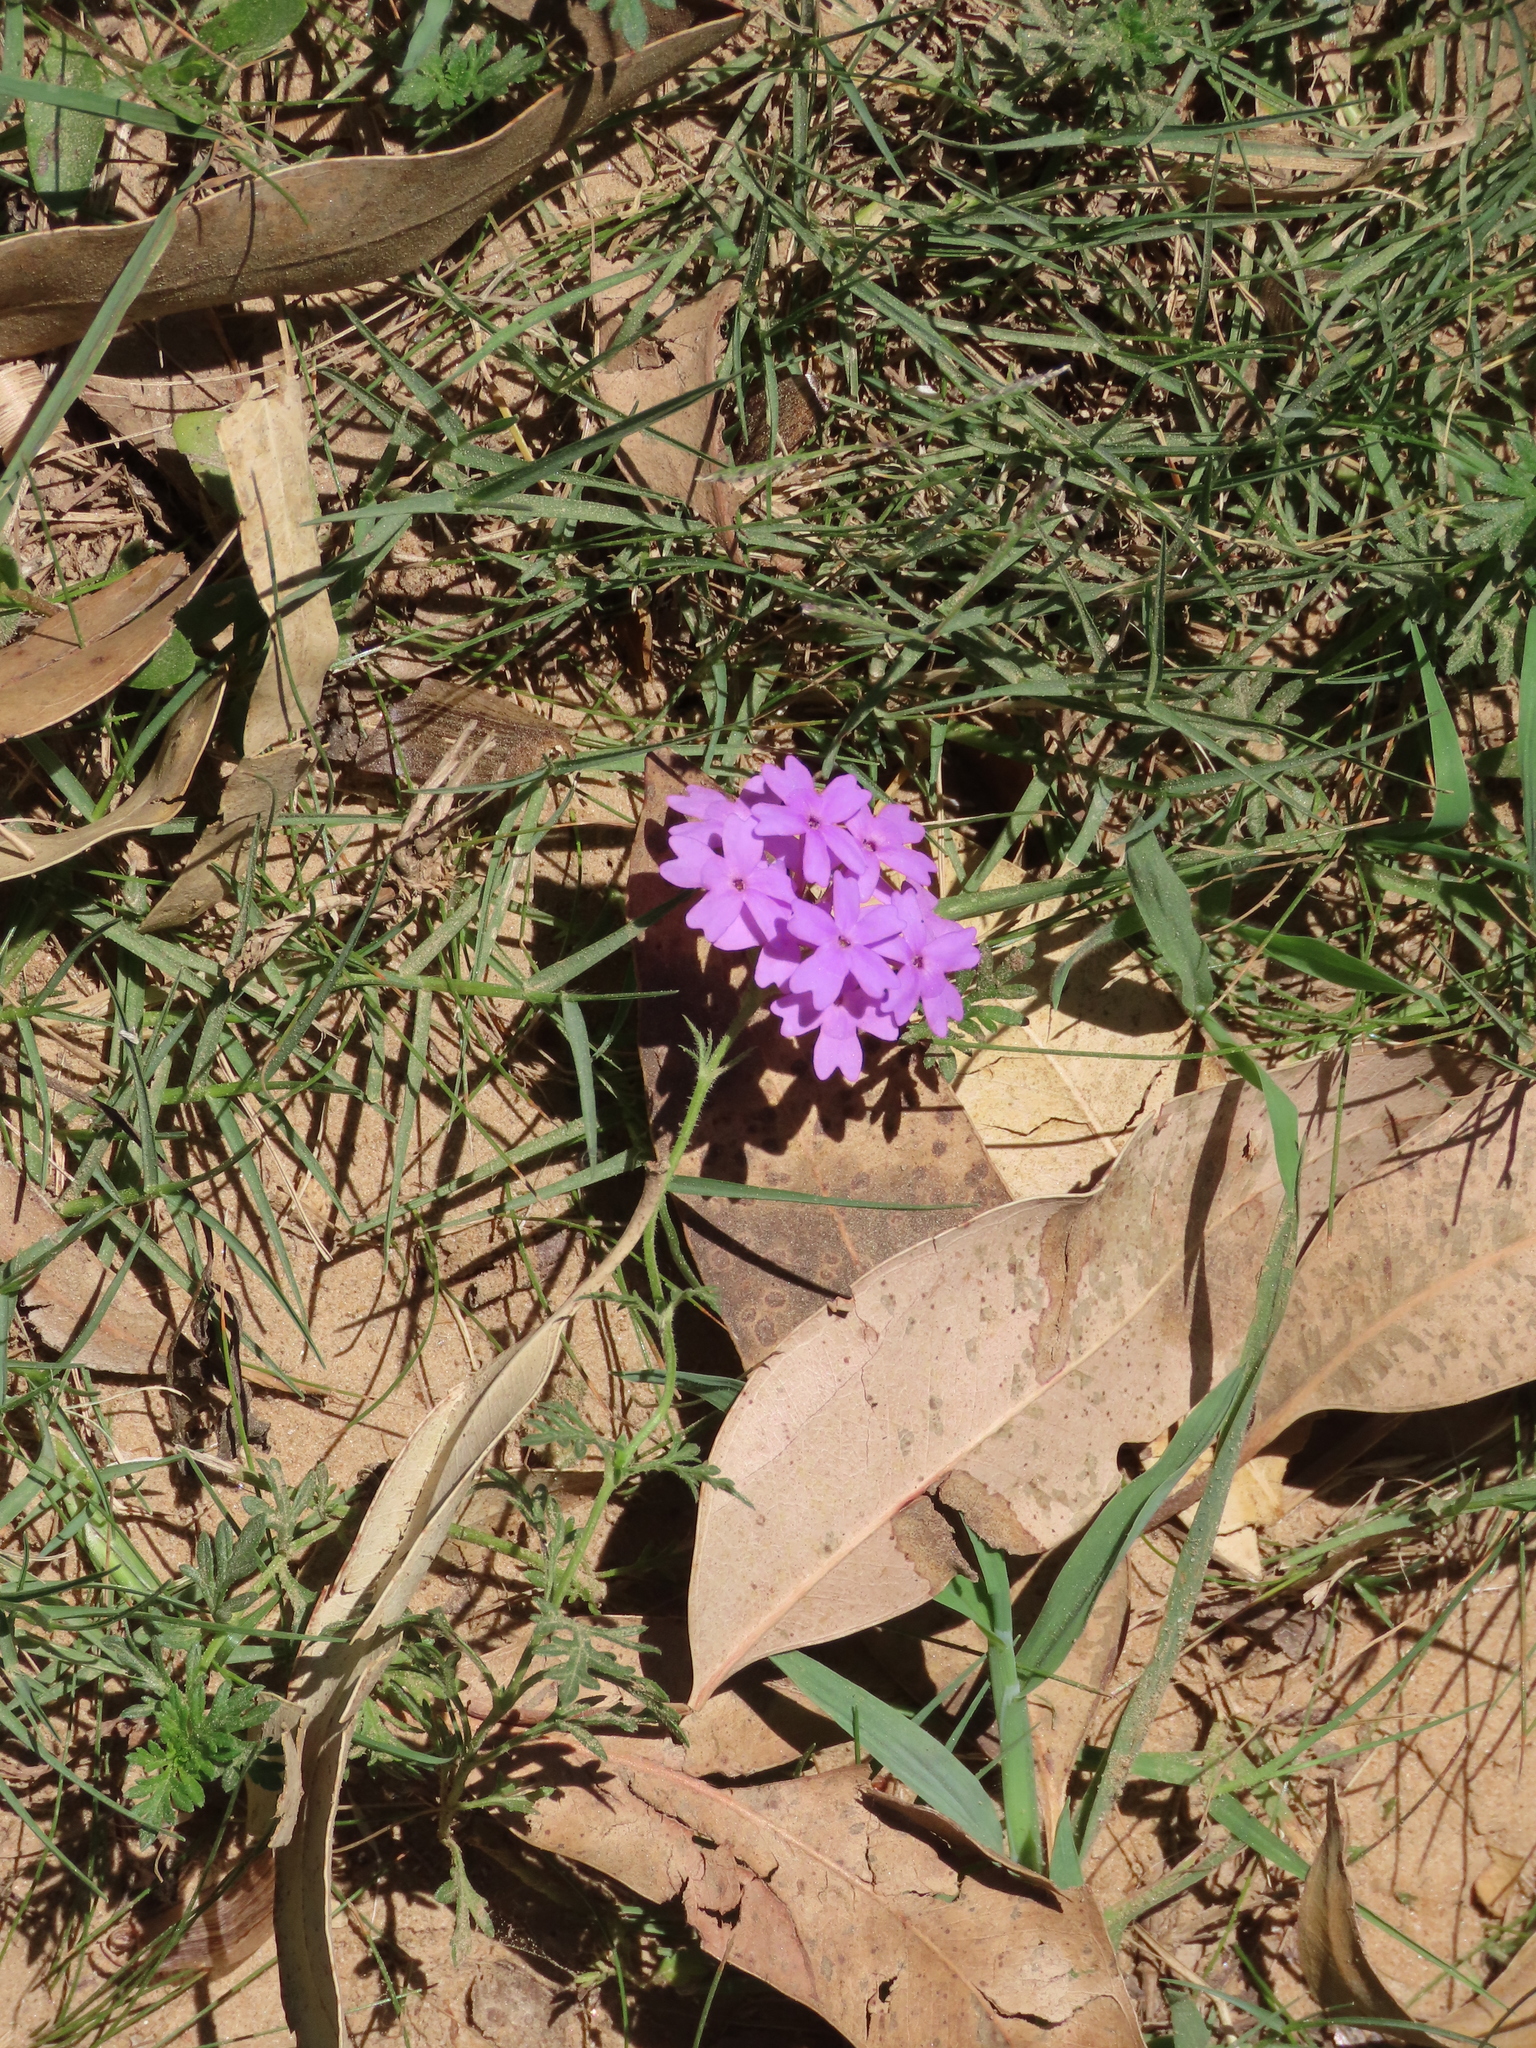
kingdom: Plantae
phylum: Tracheophyta
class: Magnoliopsida
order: Lamiales
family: Verbenaceae
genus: Verbena
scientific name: Verbena selloi
